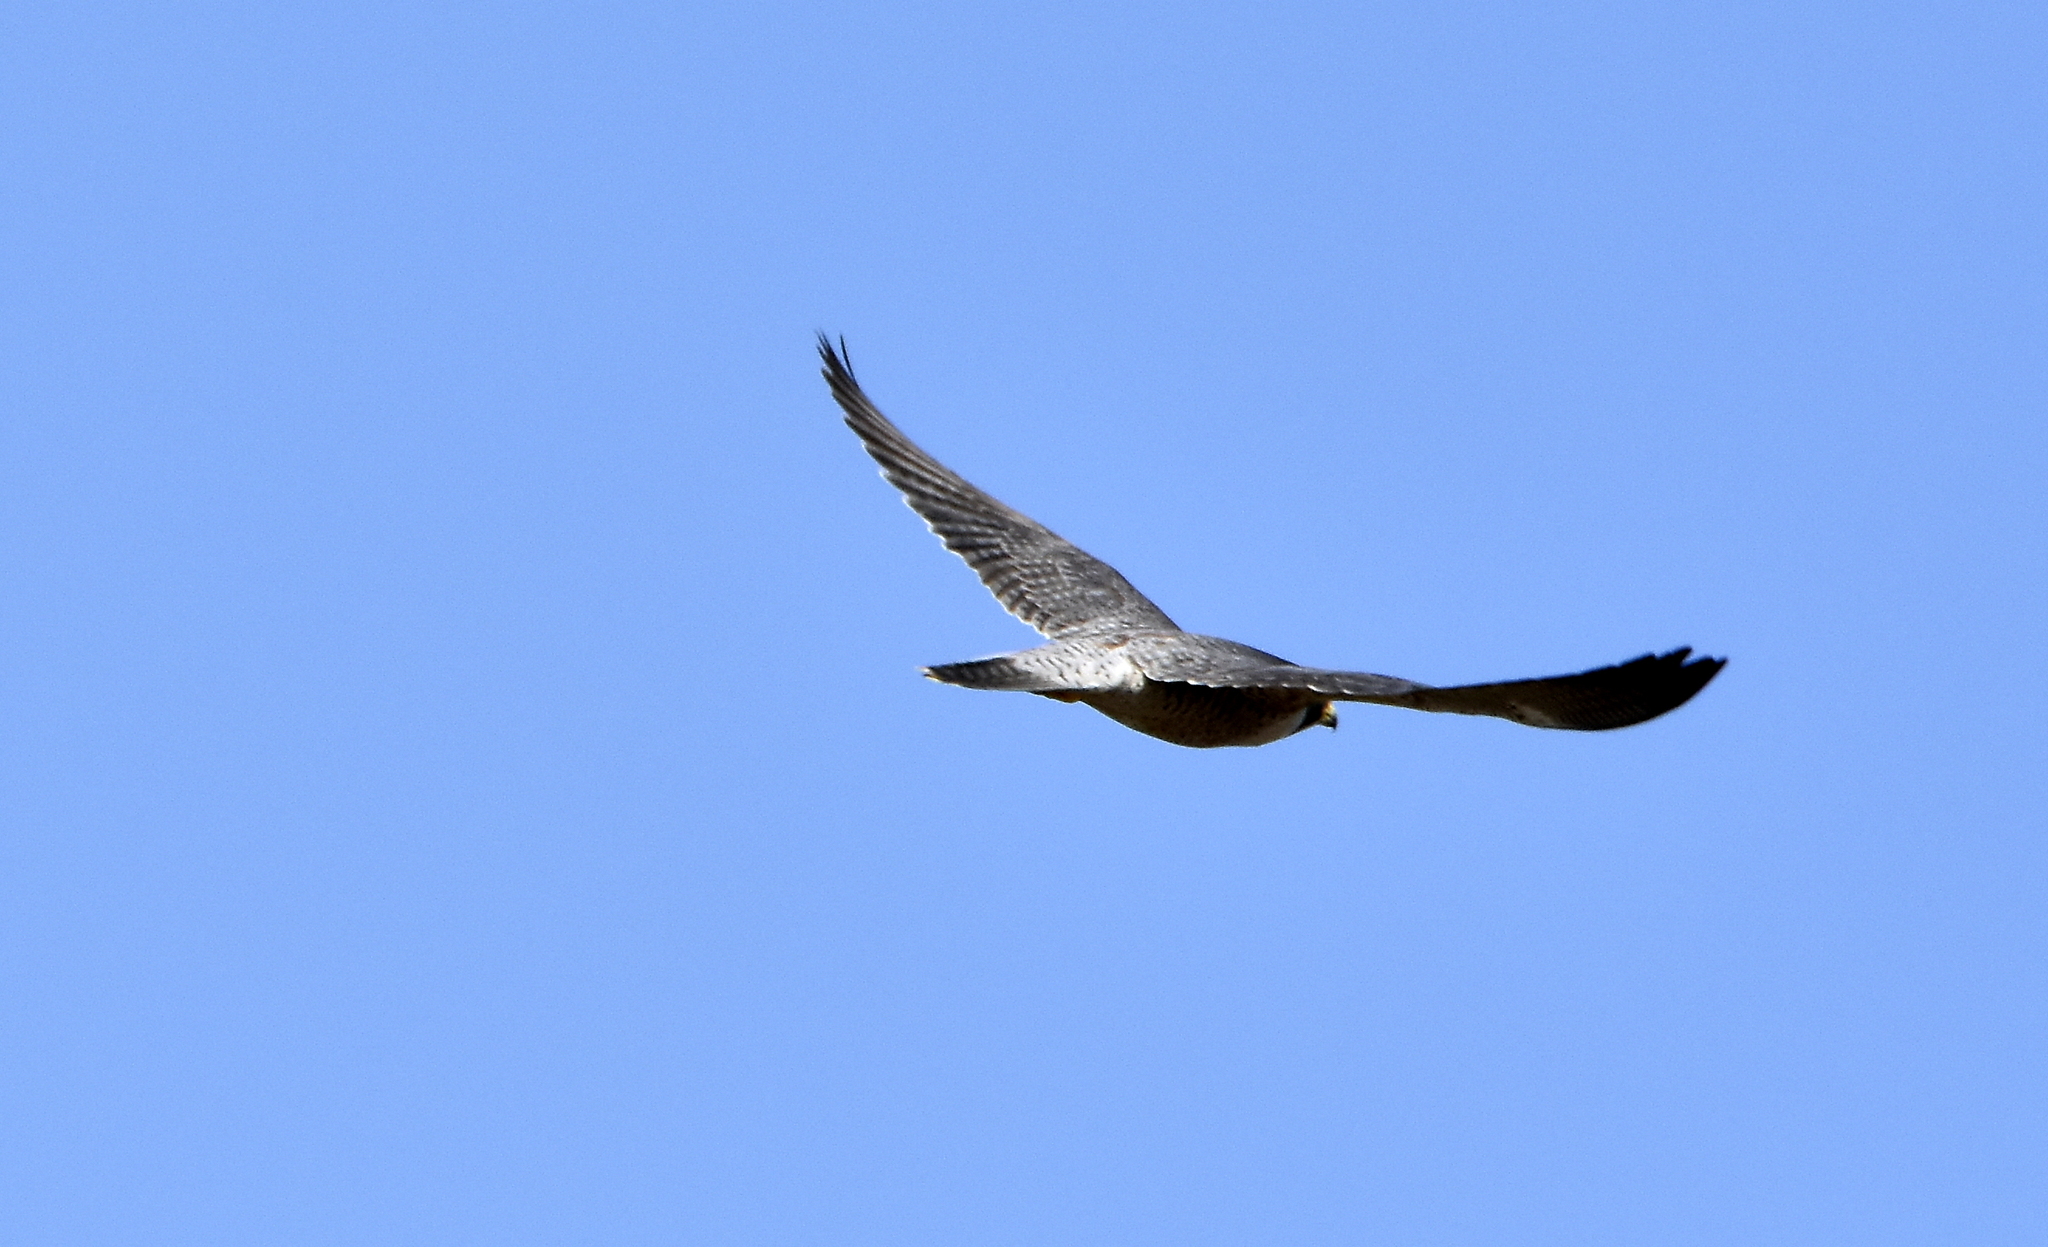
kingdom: Animalia
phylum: Chordata
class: Aves
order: Falconiformes
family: Falconidae
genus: Falco
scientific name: Falco peregrinus
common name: Peregrine falcon
